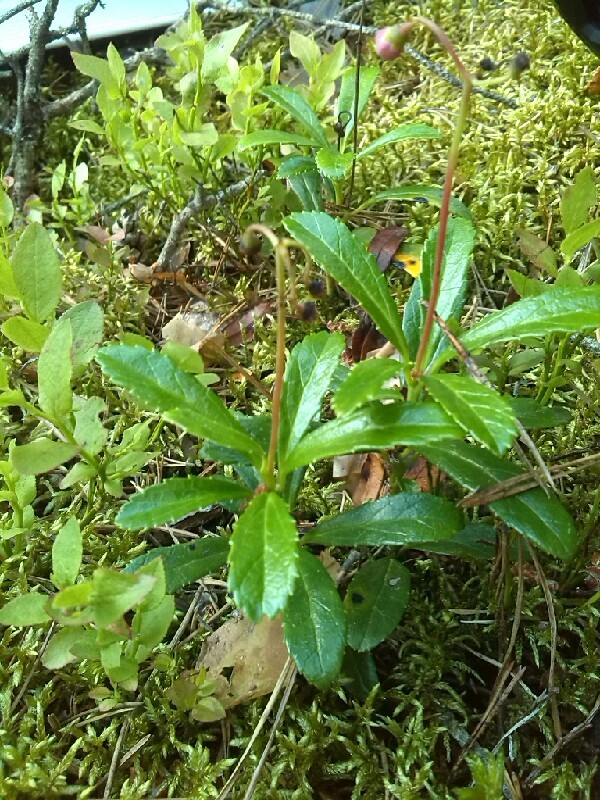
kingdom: Plantae
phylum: Tracheophyta
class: Magnoliopsida
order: Ericales
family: Ericaceae
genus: Chimaphila
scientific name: Chimaphila umbellata
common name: Pipsissewa
